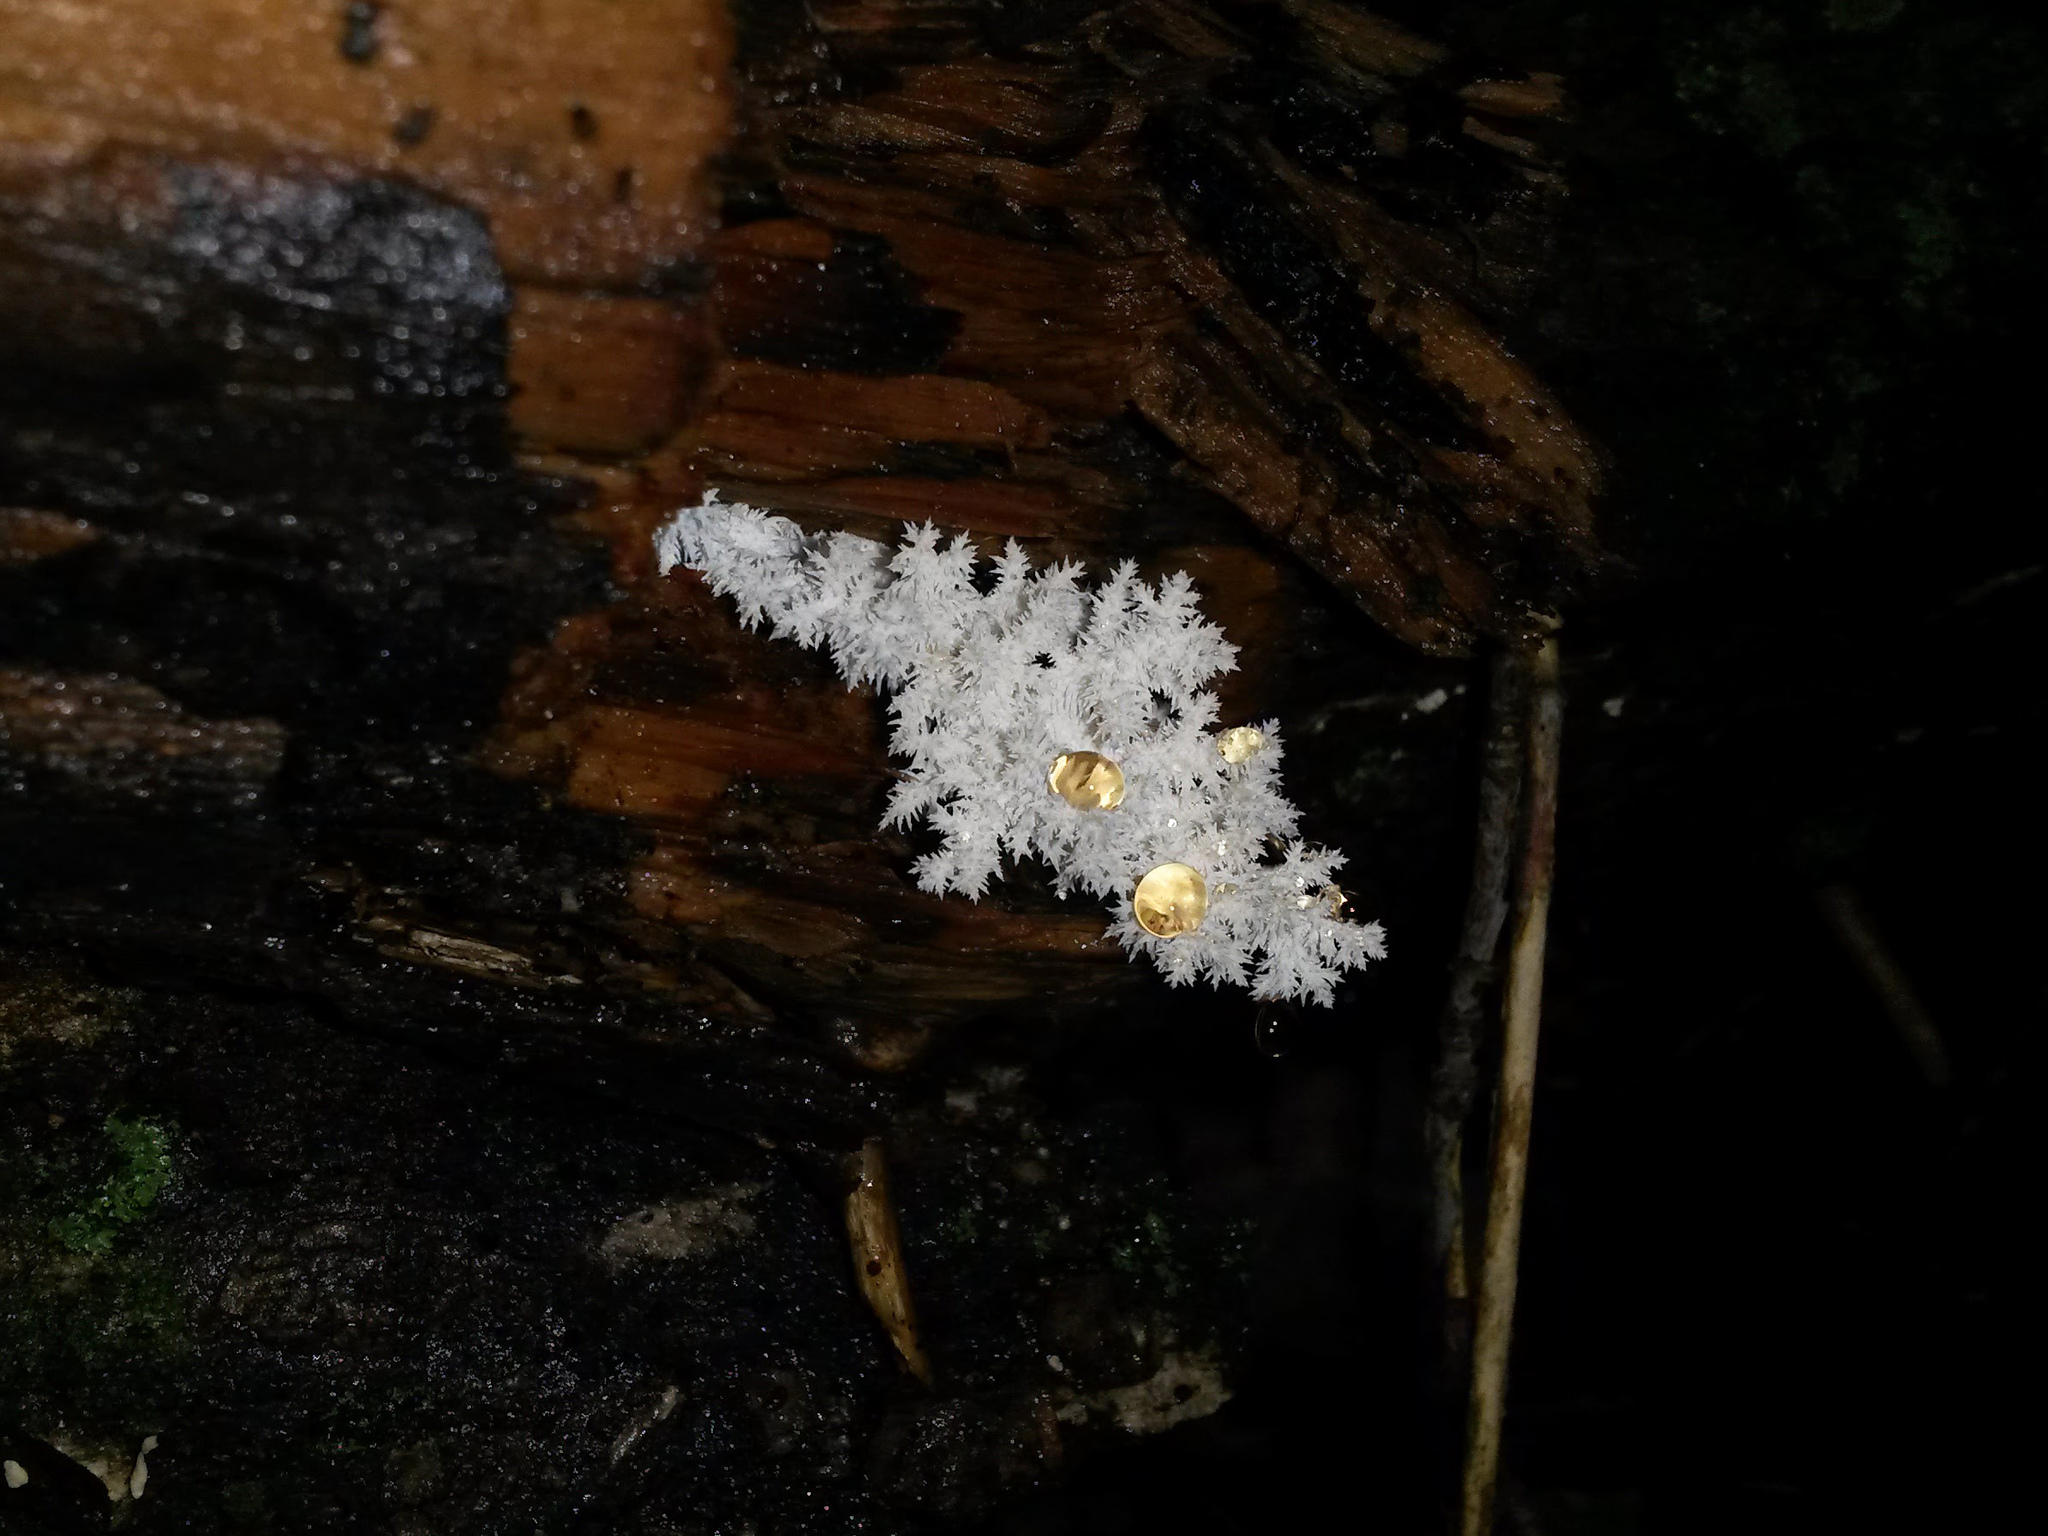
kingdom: Fungi
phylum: Basidiomycota
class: Agaricomycetes
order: Russulales
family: Hericiaceae
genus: Hericium
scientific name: Hericium coralloides
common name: Coral tooth
